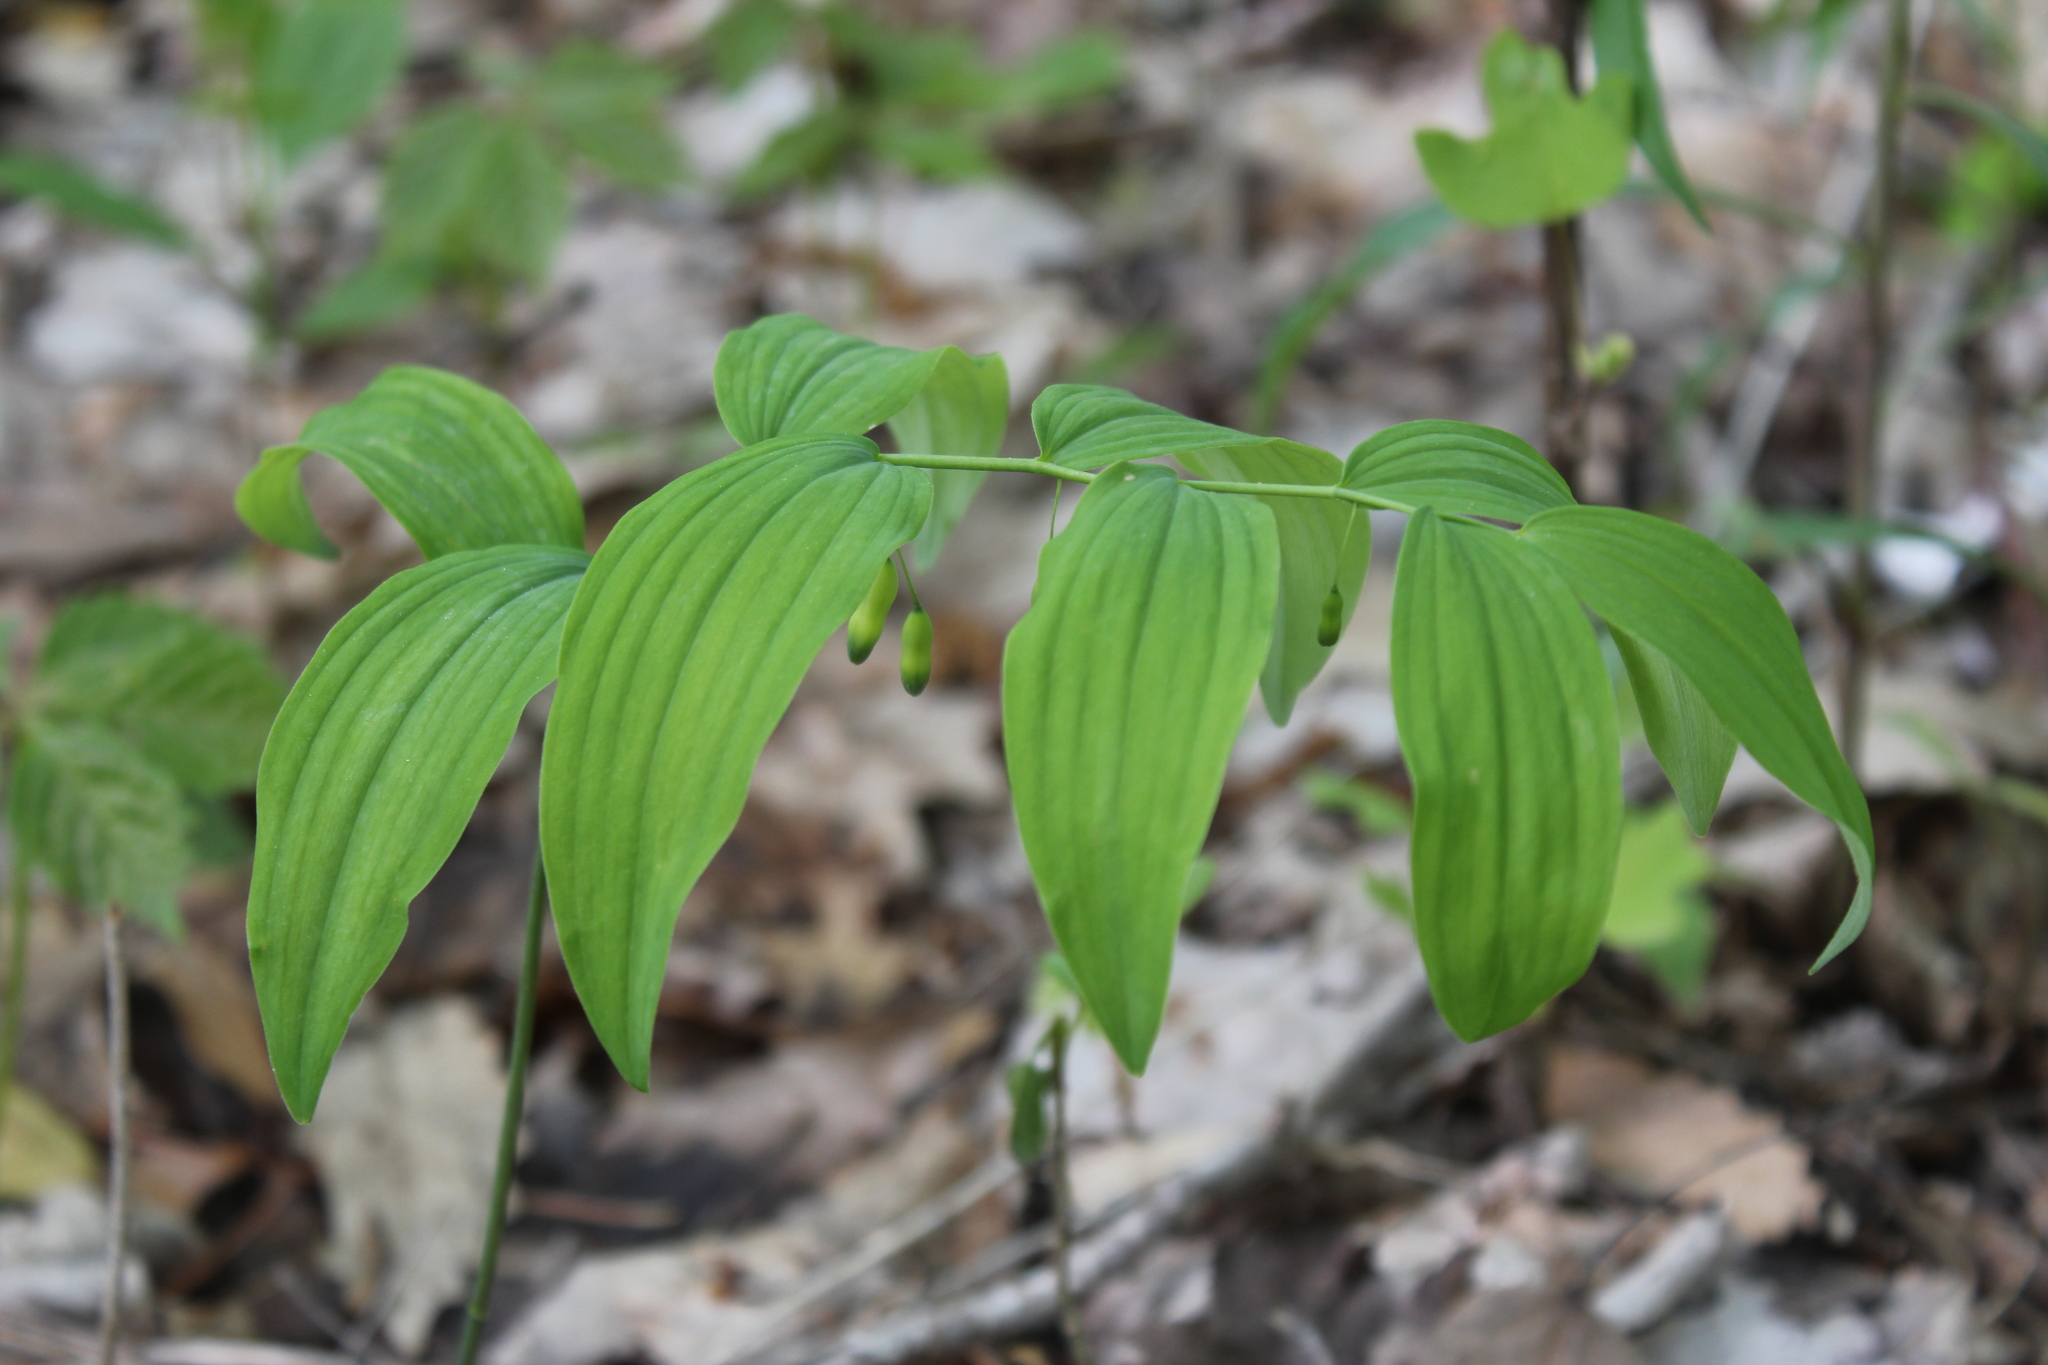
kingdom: Plantae
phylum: Tracheophyta
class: Liliopsida
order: Asparagales
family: Asparagaceae
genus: Polygonatum
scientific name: Polygonatum pubescens
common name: Downy solomon's seal
